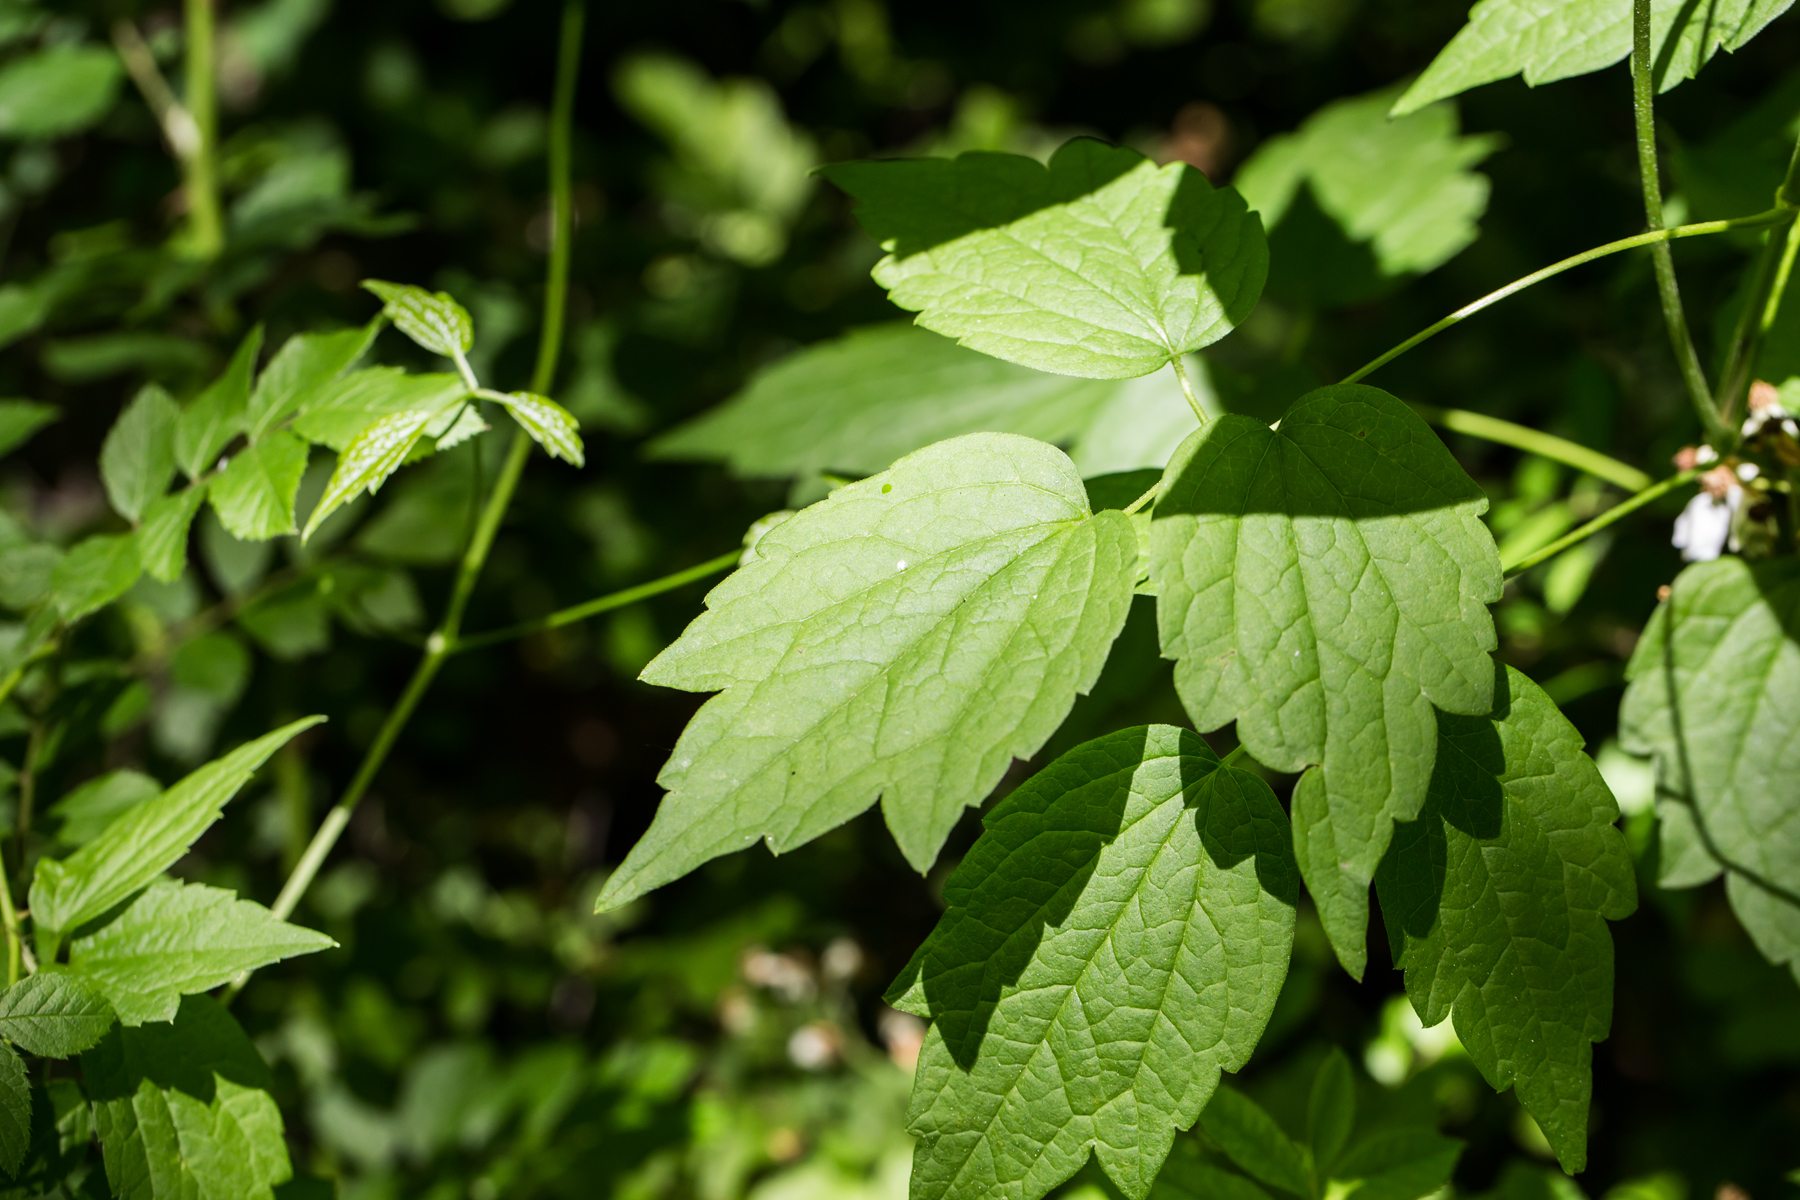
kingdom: Plantae
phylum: Tracheophyta
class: Magnoliopsida
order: Ranunculales
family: Ranunculaceae
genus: Clematis
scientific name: Clematis virginiana
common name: Virgin's-bower
